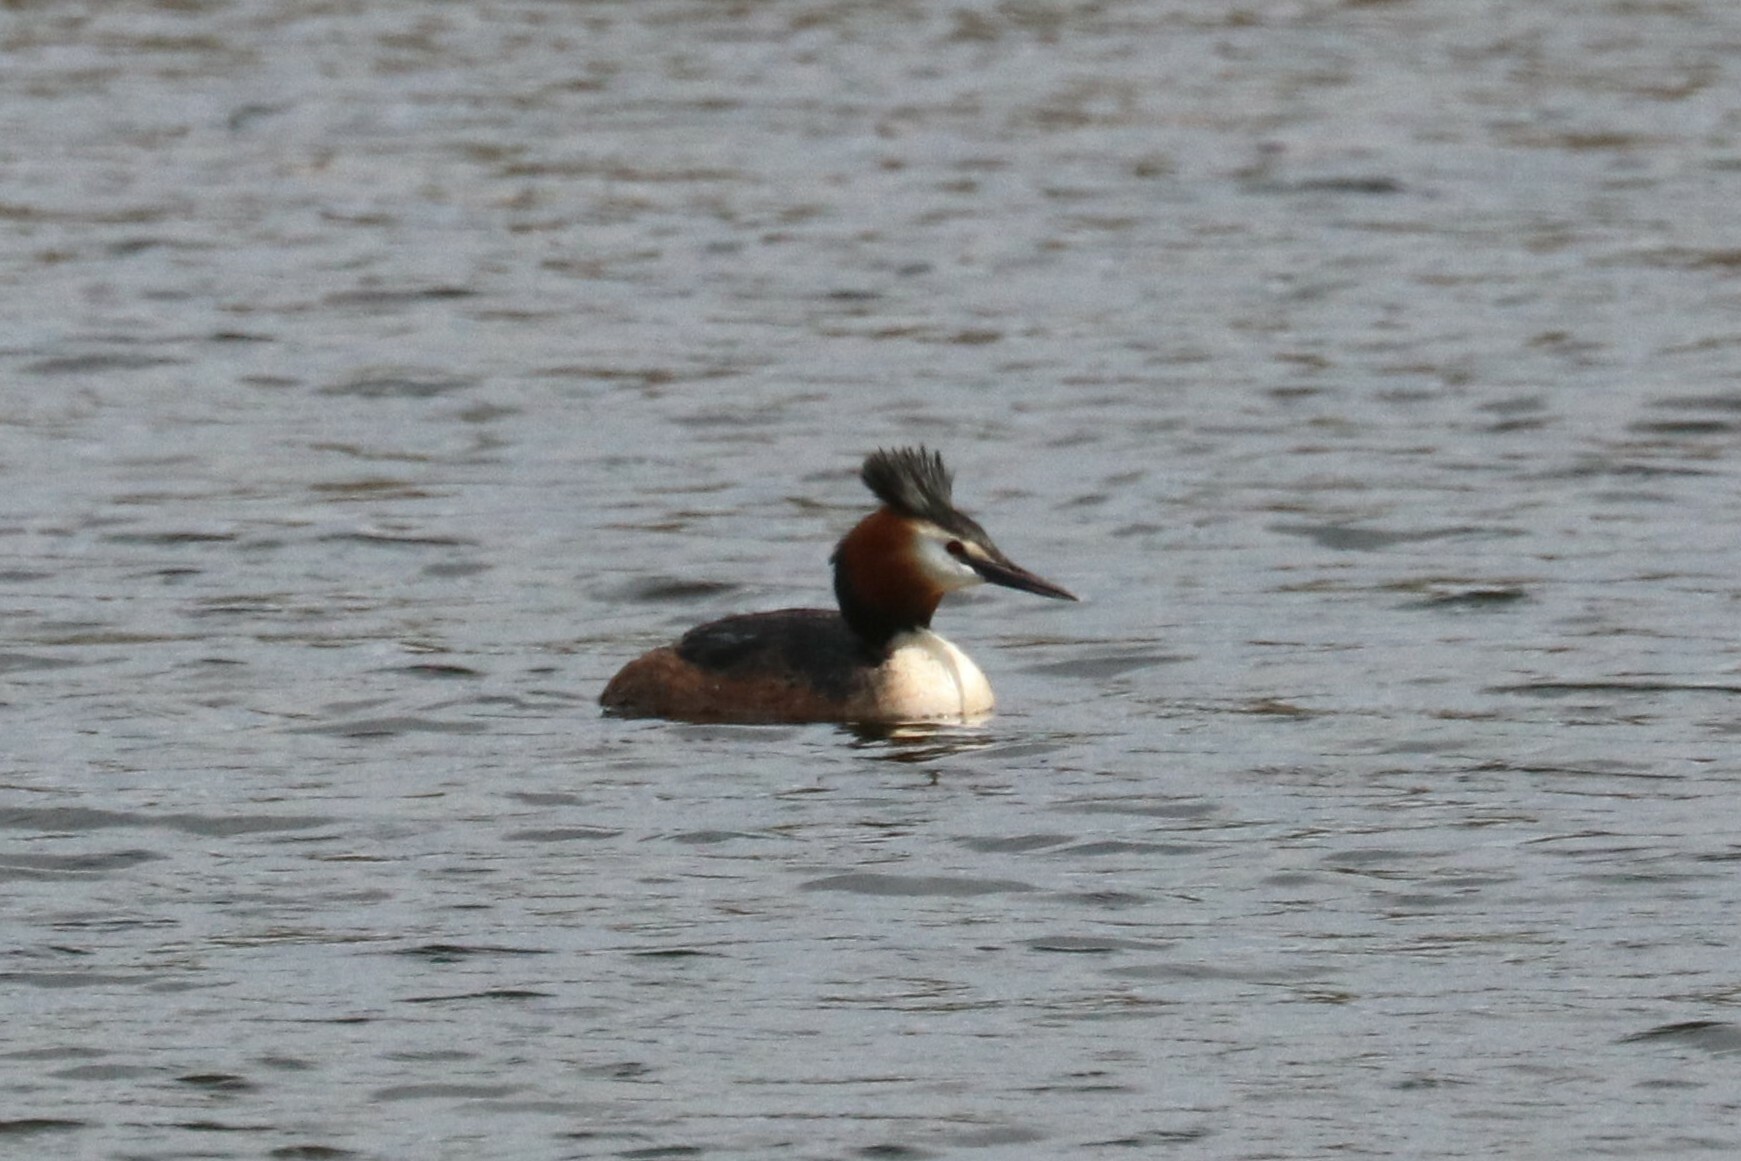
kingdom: Animalia
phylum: Chordata
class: Aves
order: Podicipediformes
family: Podicipedidae
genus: Podiceps
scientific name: Podiceps cristatus
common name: Great crested grebe
